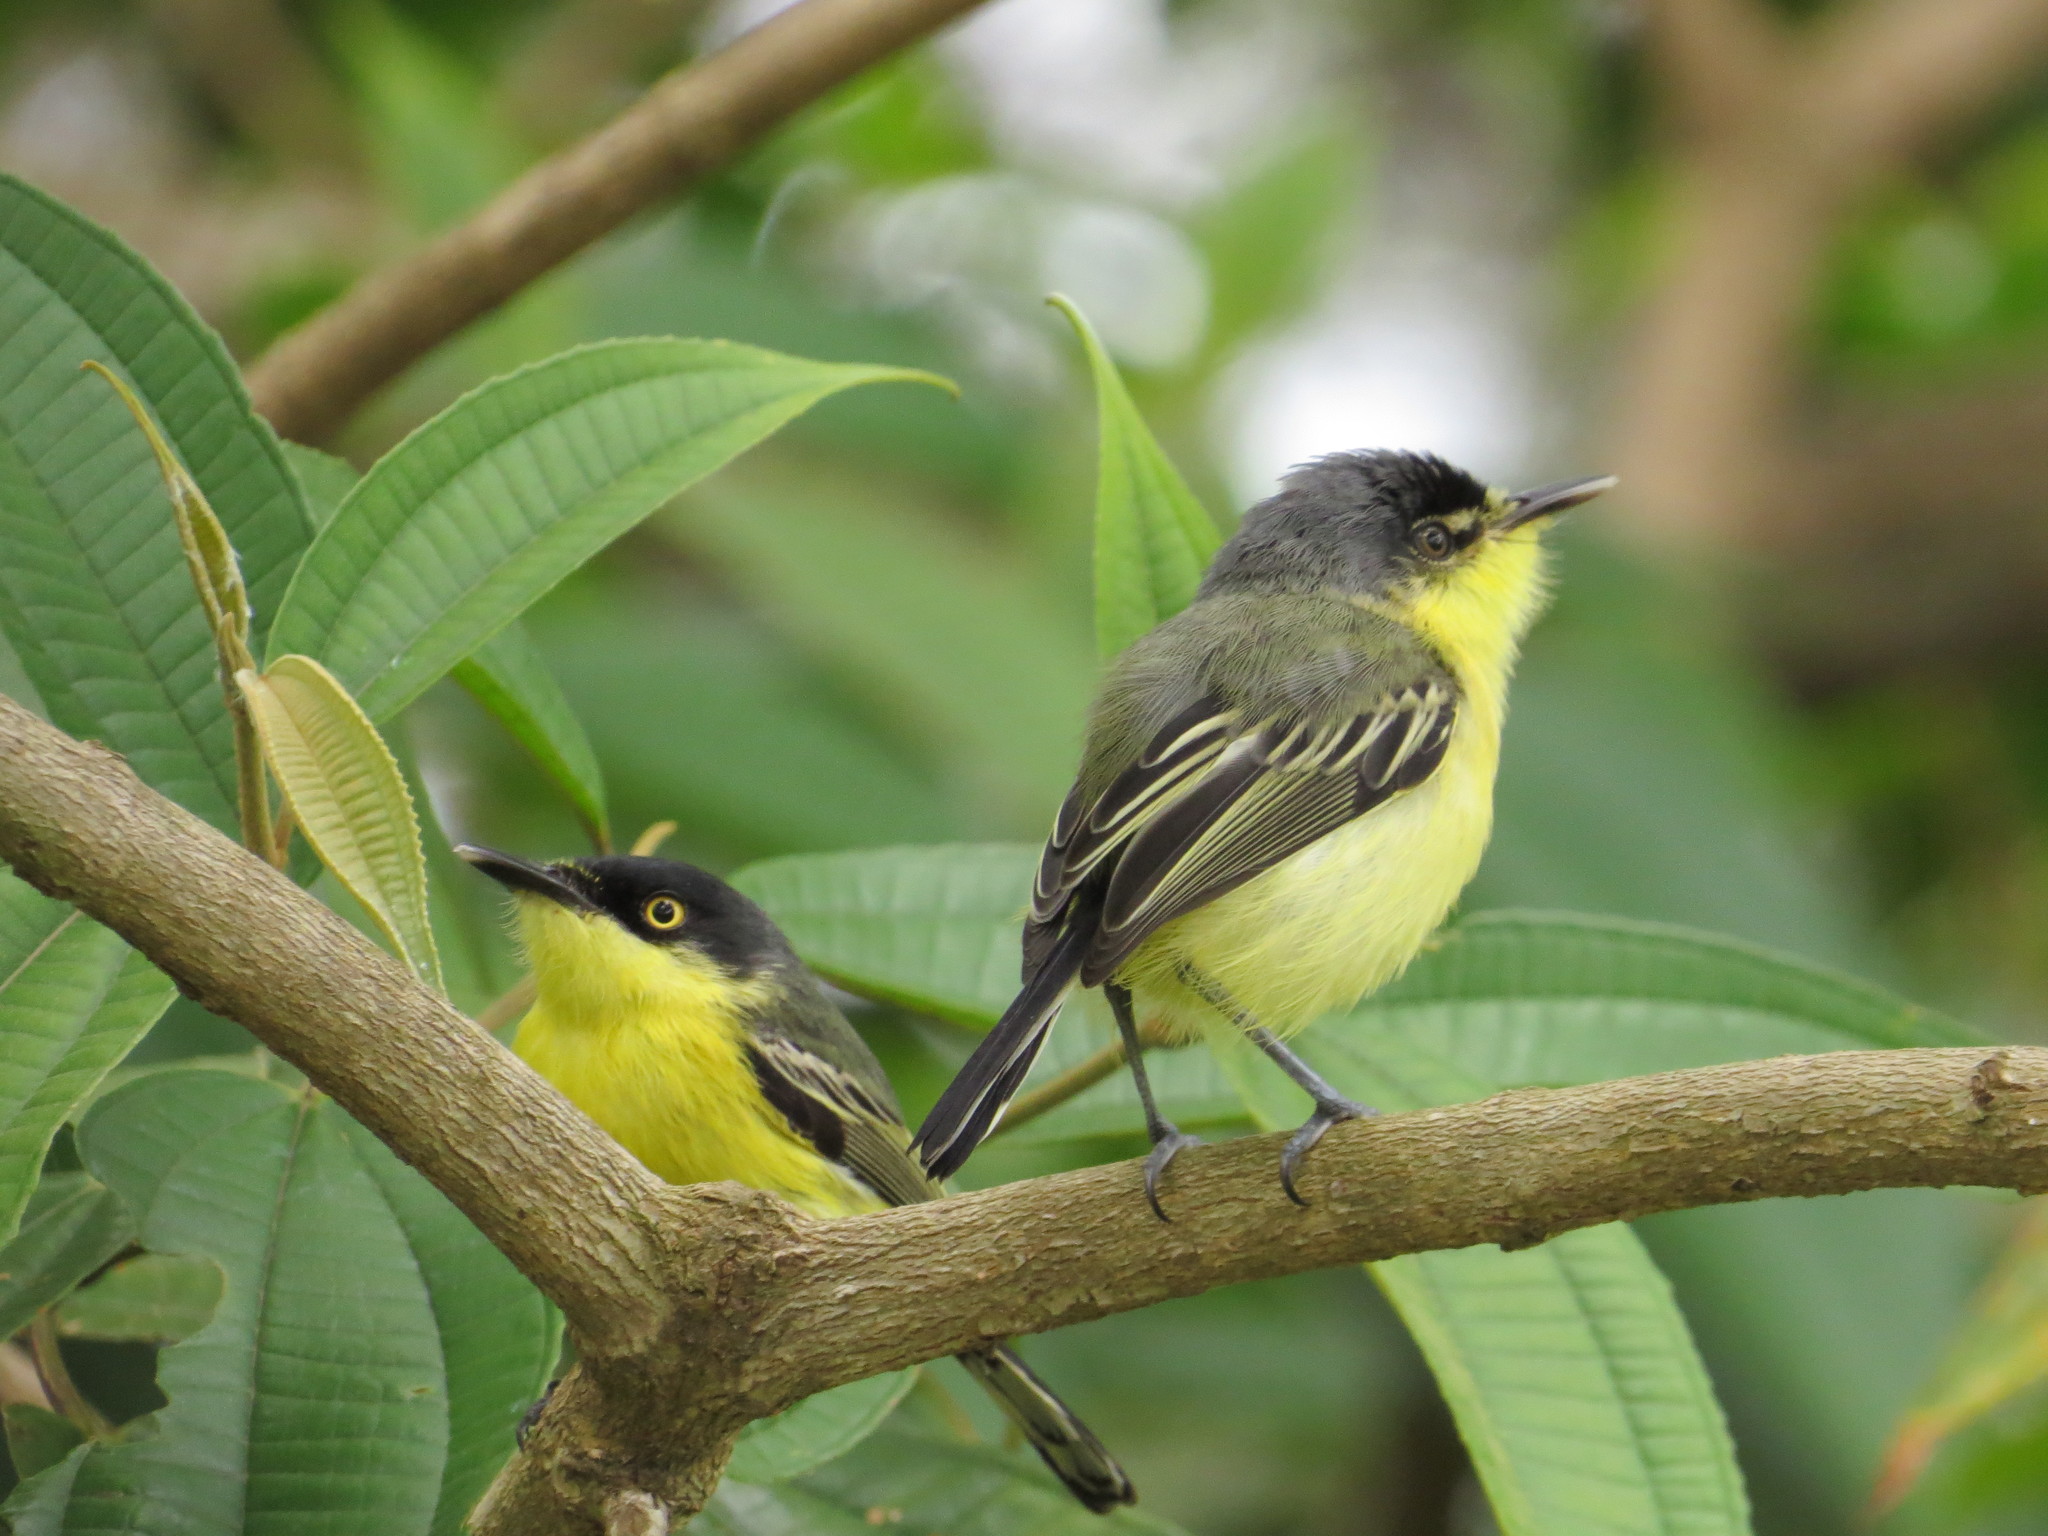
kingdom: Animalia
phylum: Chordata
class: Aves
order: Passeriformes
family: Tyrannidae
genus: Todirostrum
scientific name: Todirostrum cinereum
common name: Common tody-flycatcher
